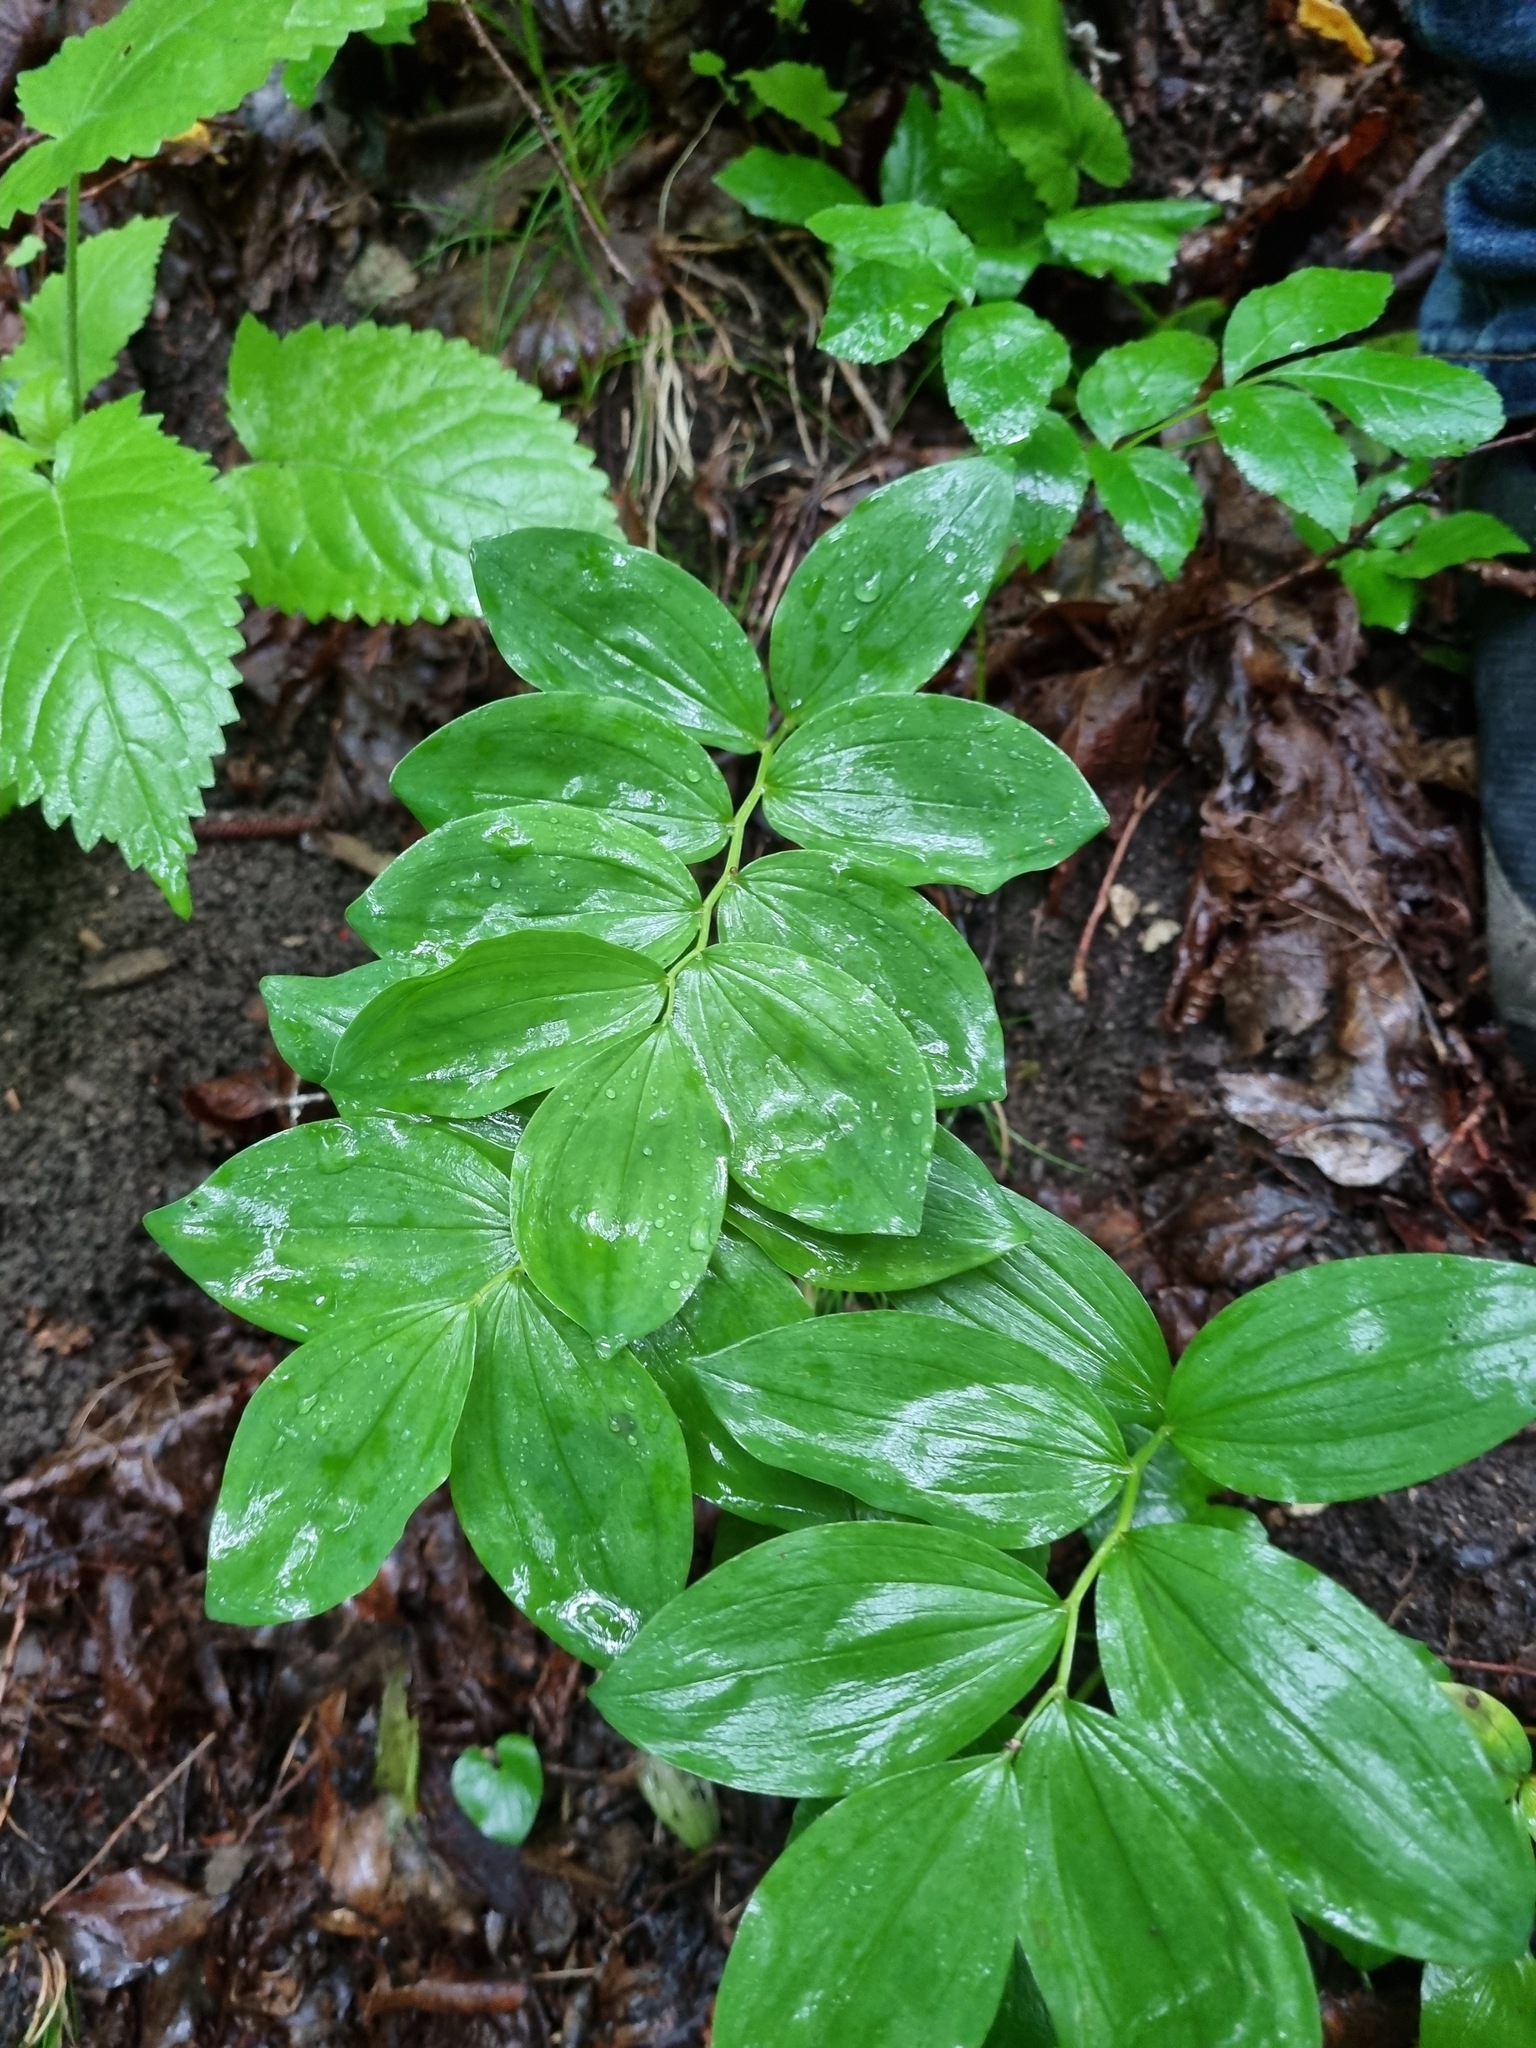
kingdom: Plantae
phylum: Tracheophyta
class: Liliopsida
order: Asparagales
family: Asparagaceae
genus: Polygonatum
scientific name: Polygonatum multiflorum
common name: Solomon's-seal
